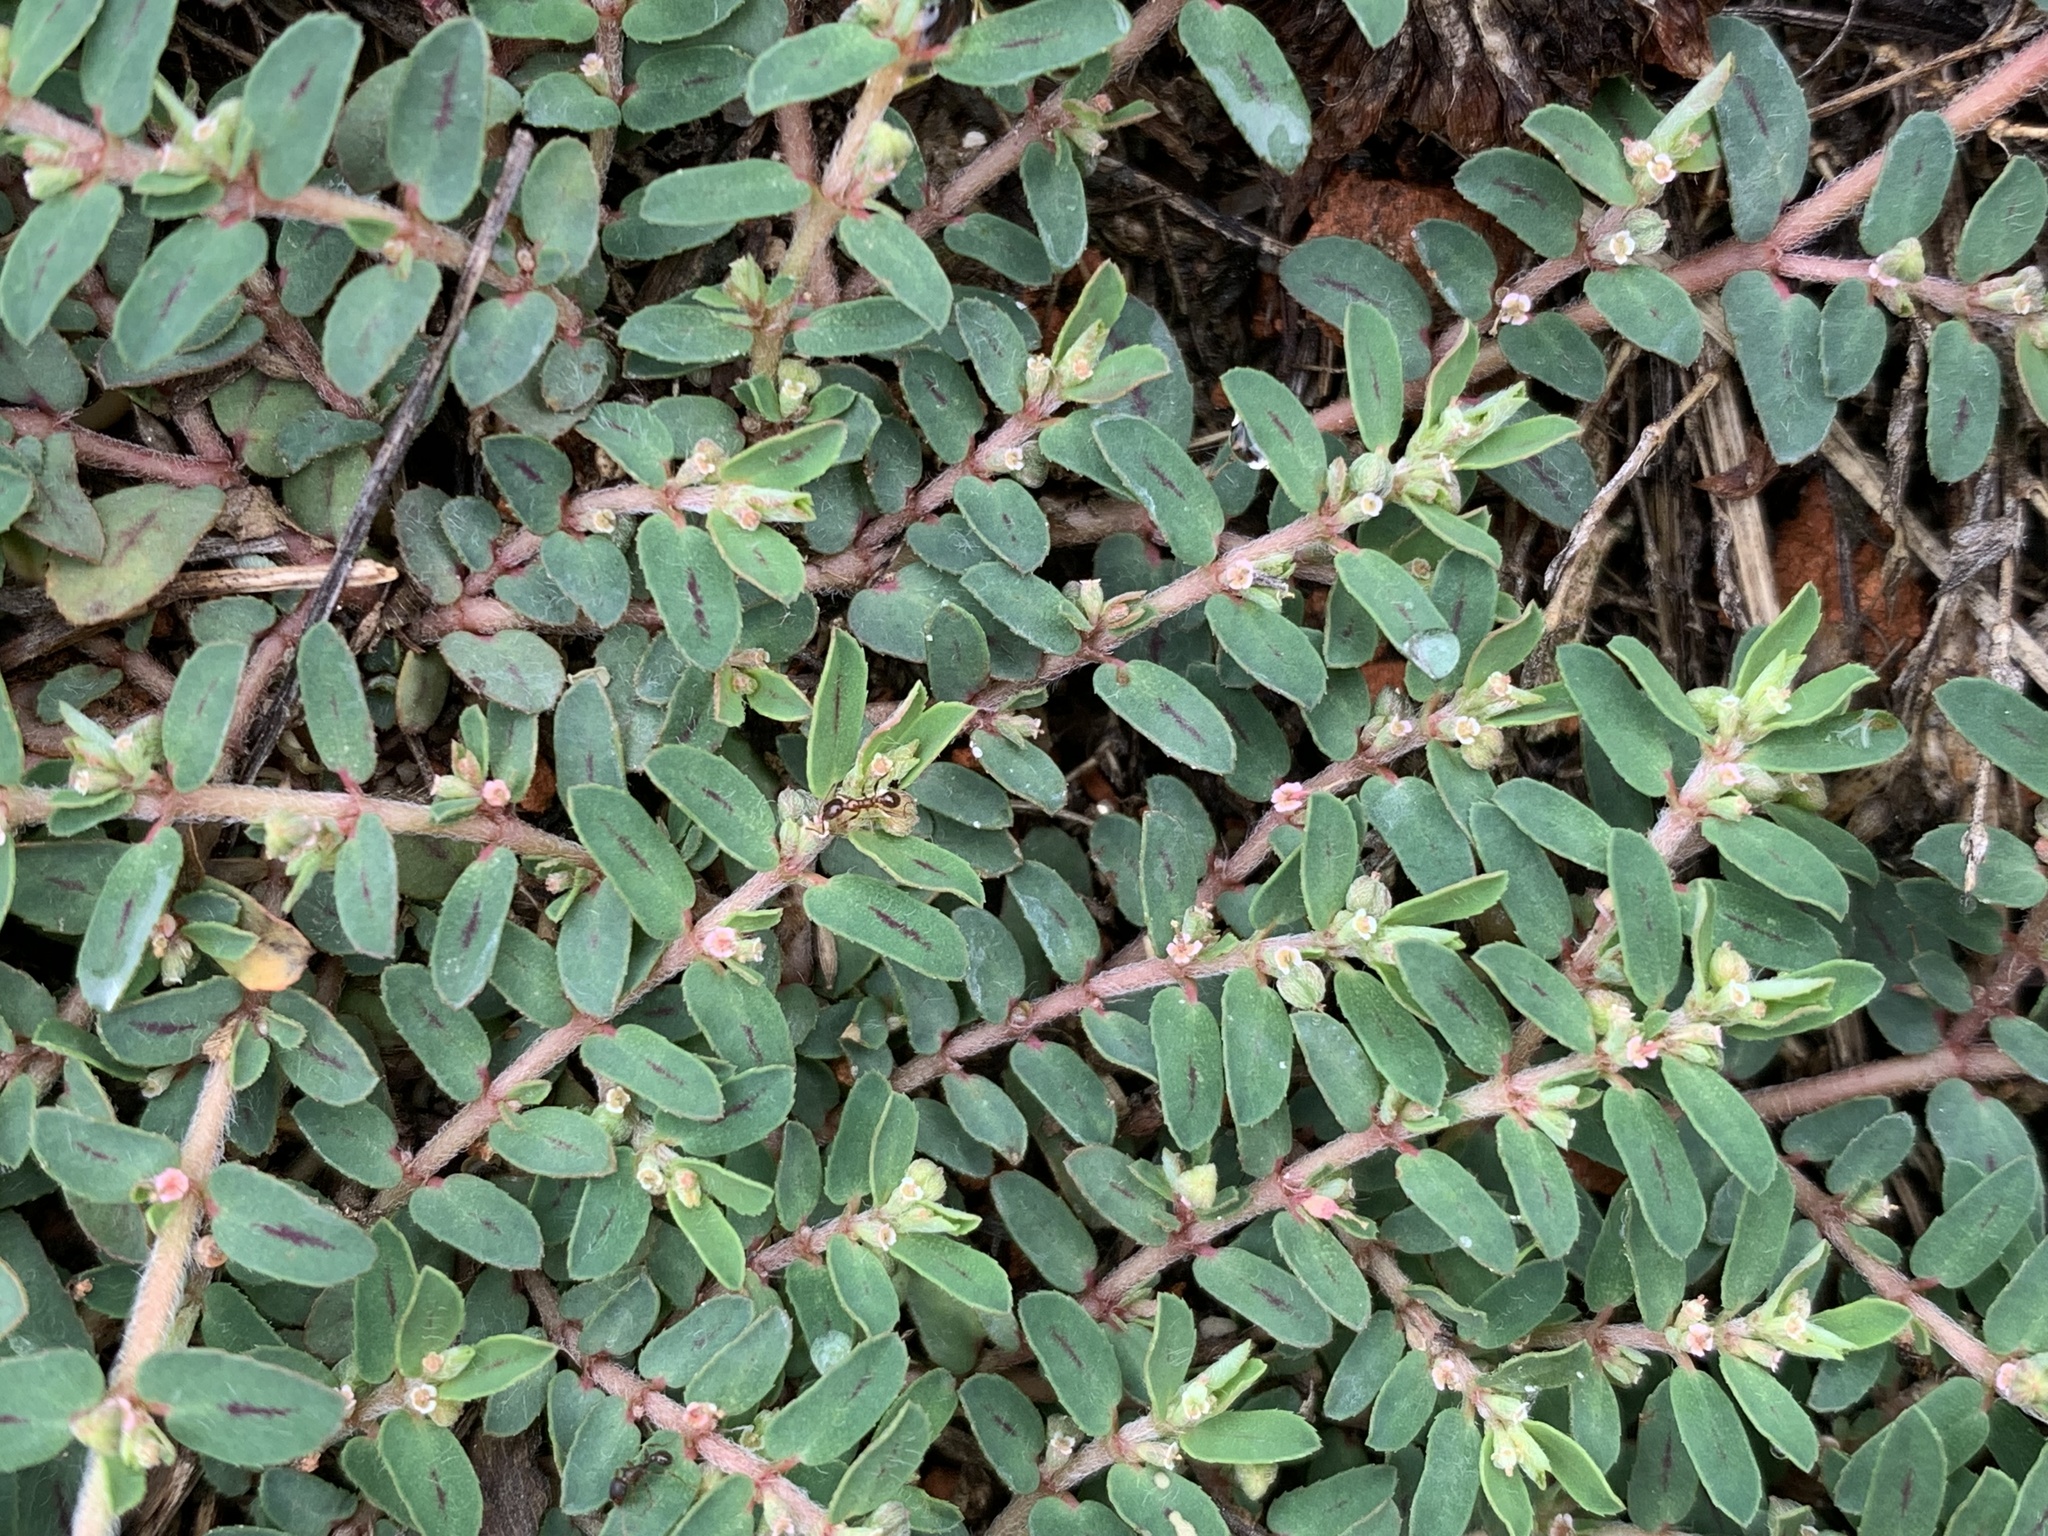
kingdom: Plantae
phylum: Tracheophyta
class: Magnoliopsida
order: Malpighiales
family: Euphorbiaceae
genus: Euphorbia
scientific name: Euphorbia maculata
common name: Spotted spurge
